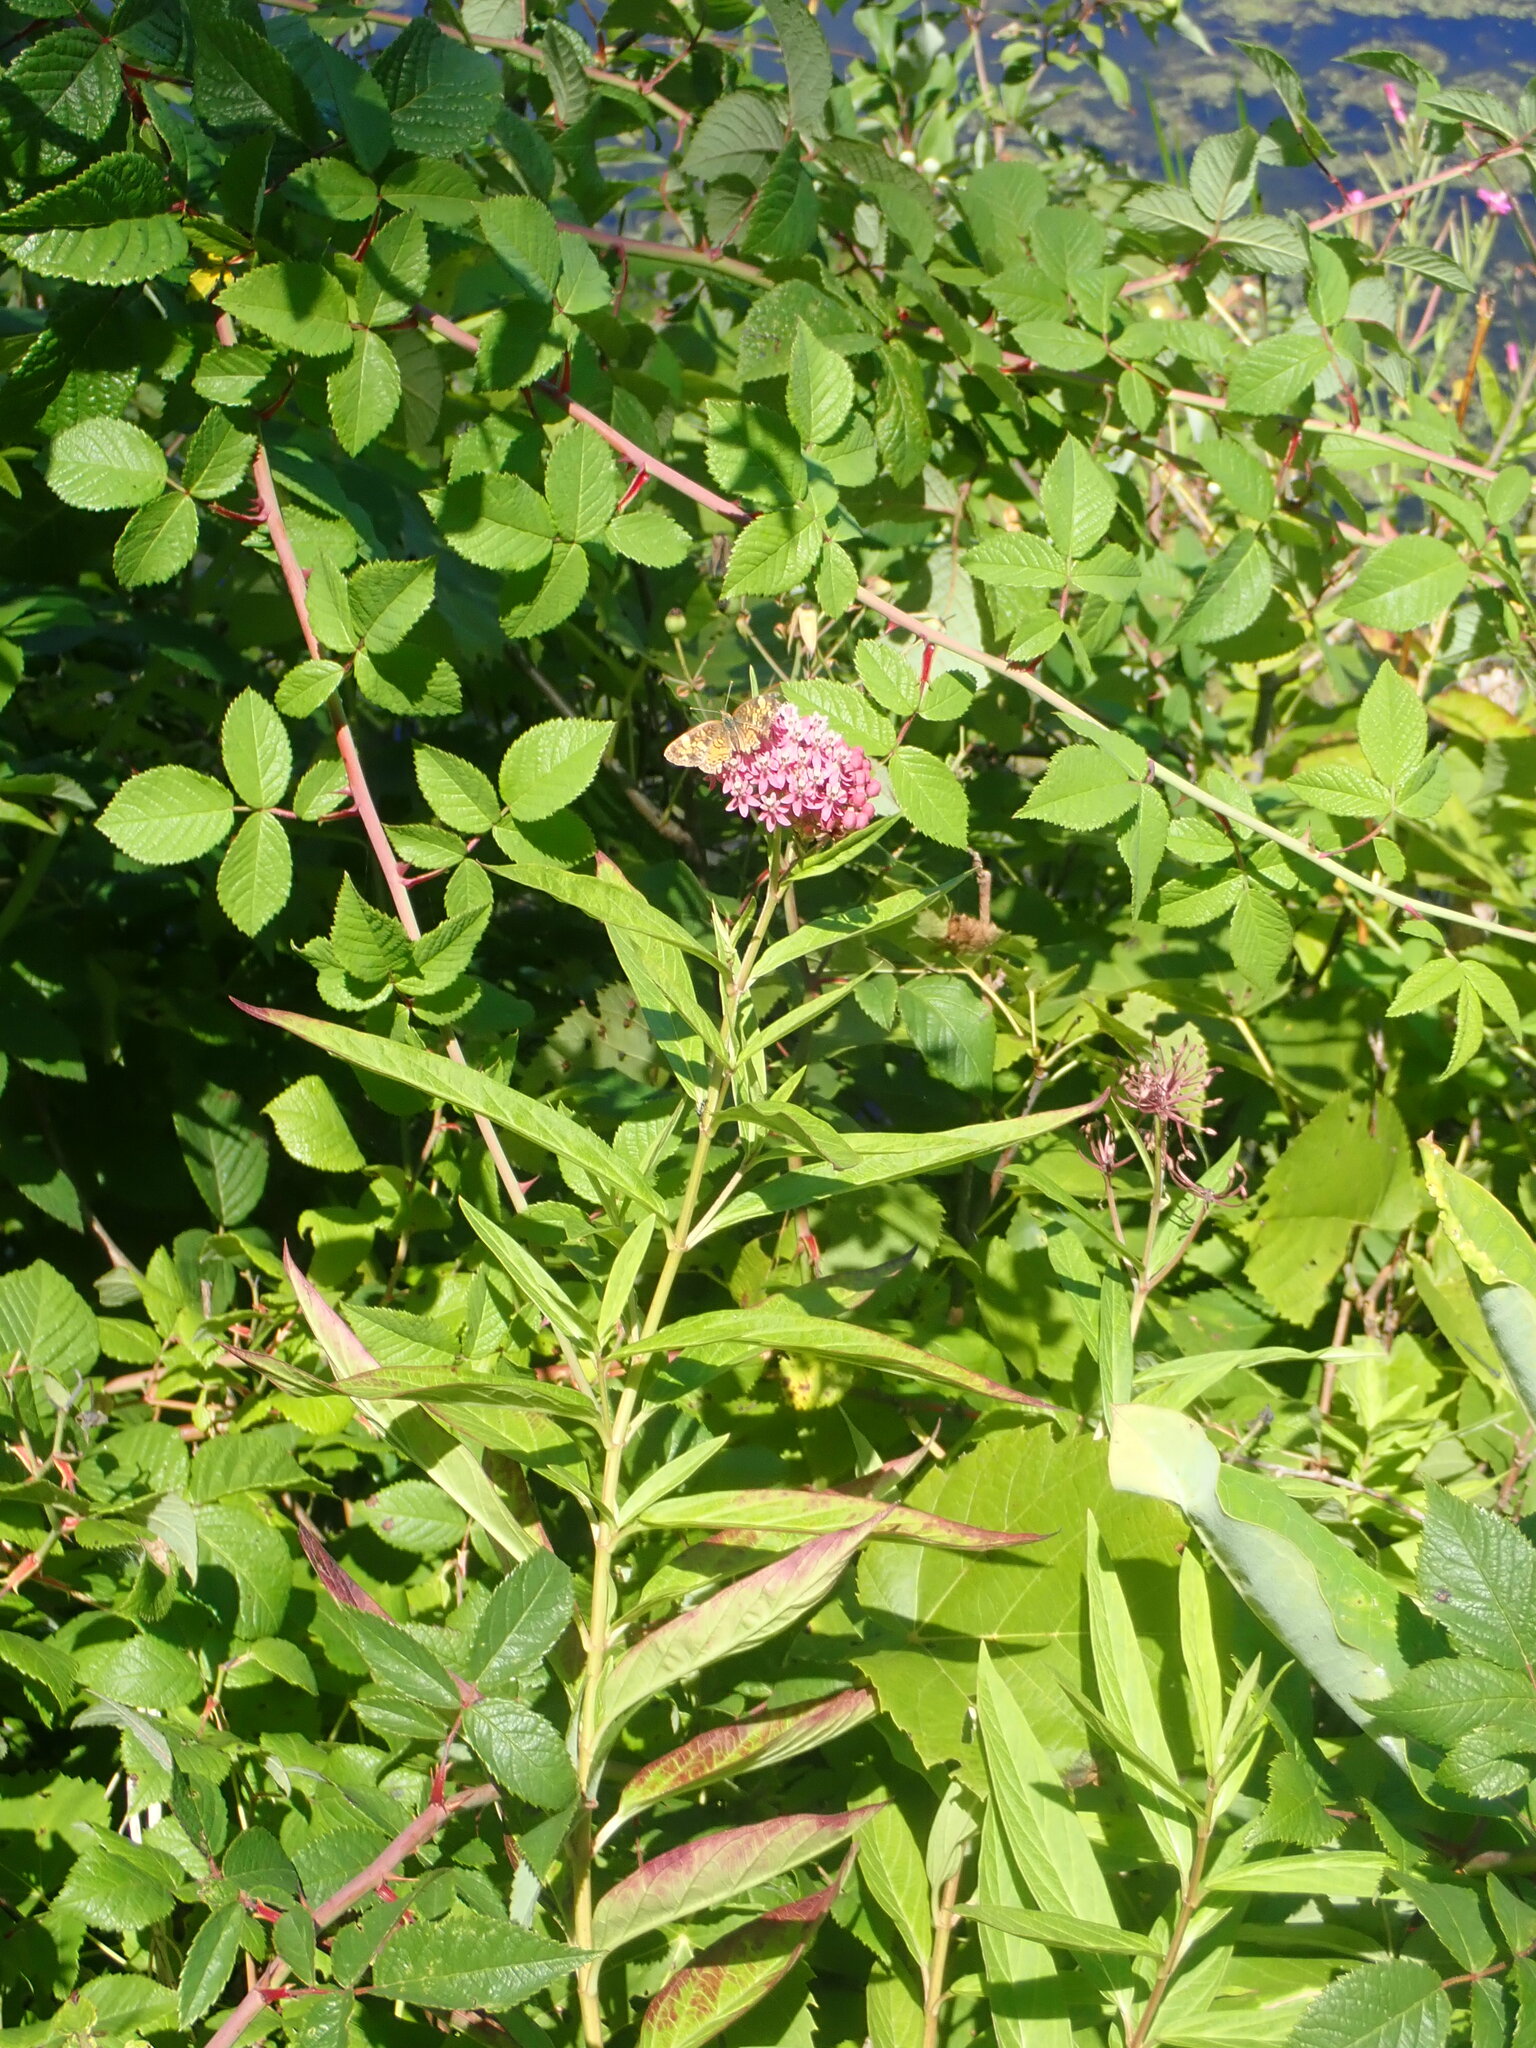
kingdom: Plantae
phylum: Tracheophyta
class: Magnoliopsida
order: Gentianales
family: Apocynaceae
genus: Asclepias
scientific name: Asclepias incarnata
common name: Swamp milkweed
